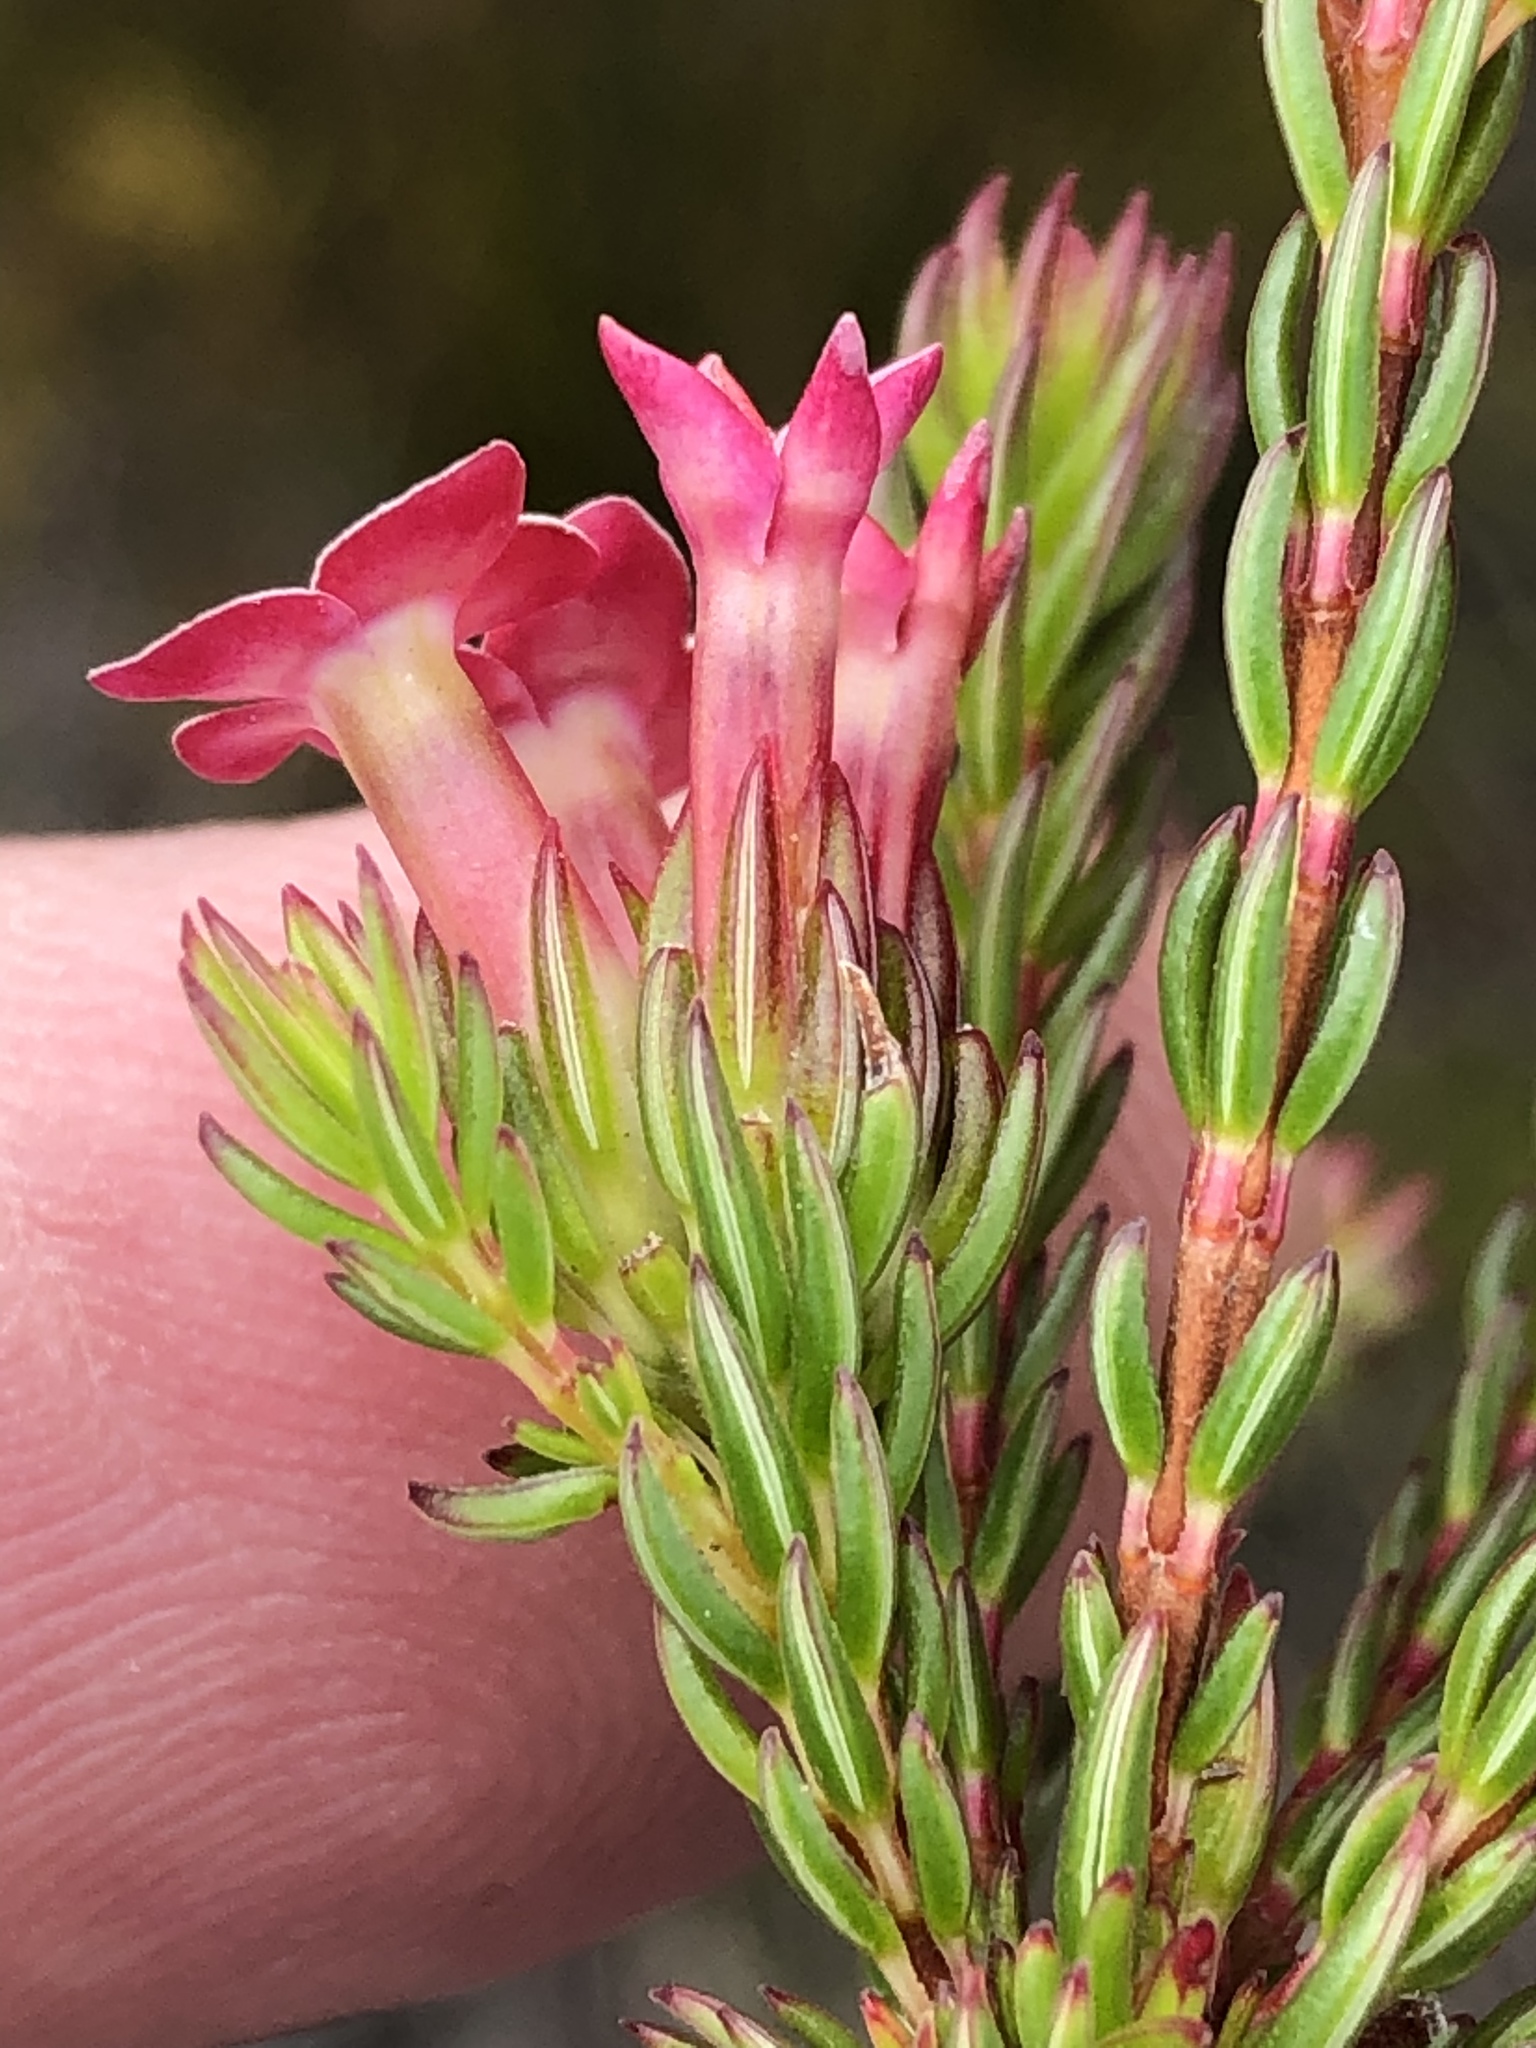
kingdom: Plantae
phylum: Tracheophyta
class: Magnoliopsida
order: Ericales
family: Ericaceae
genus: Erica
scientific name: Erica fastigiata
